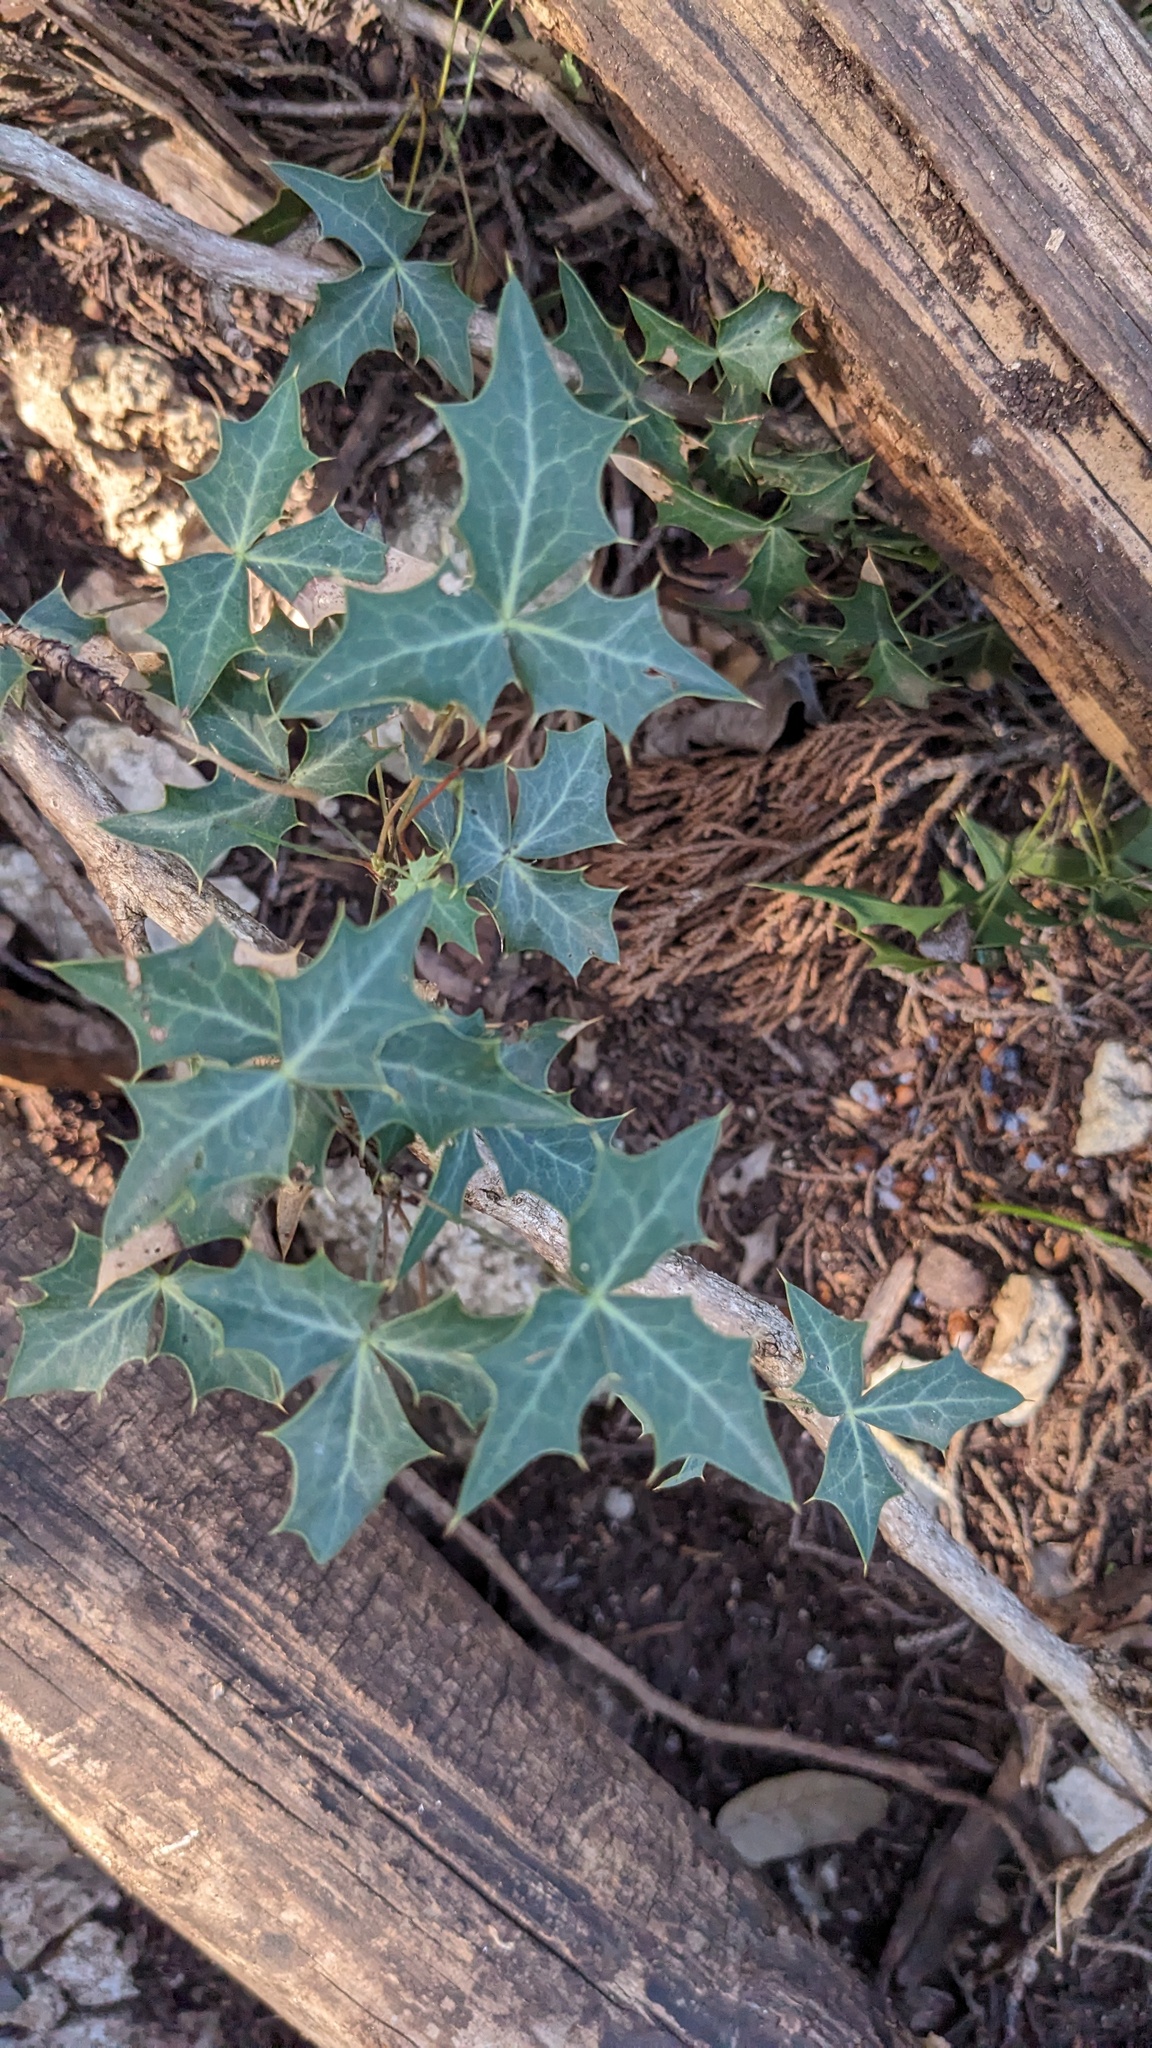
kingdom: Plantae
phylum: Tracheophyta
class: Magnoliopsida
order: Ranunculales
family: Berberidaceae
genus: Alloberberis
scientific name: Alloberberis trifoliolata
